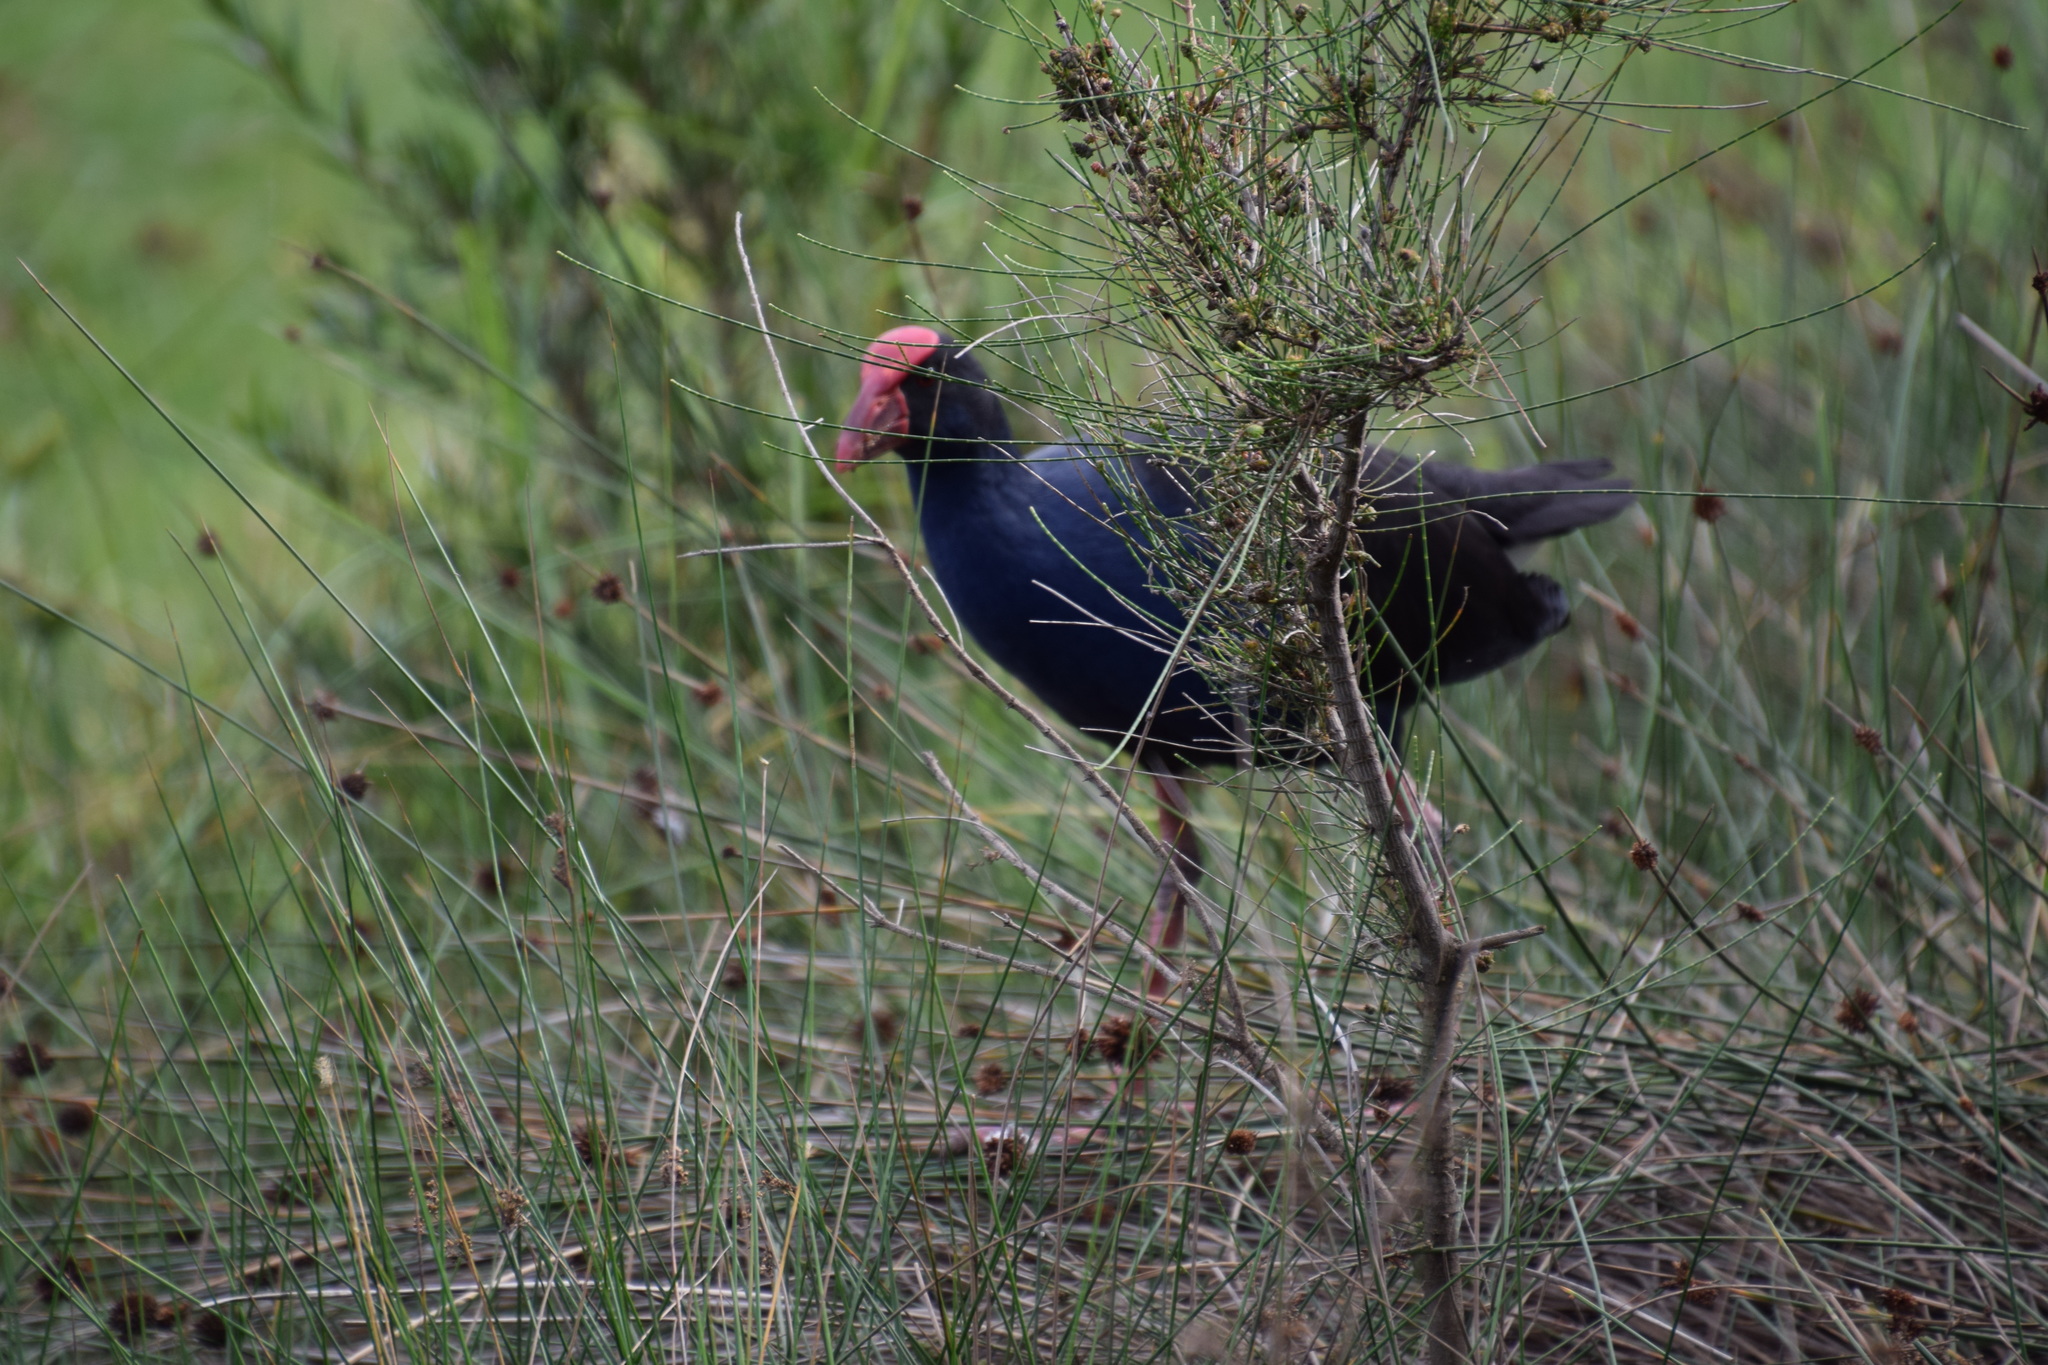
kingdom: Animalia
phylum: Chordata
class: Aves
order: Gruiformes
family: Rallidae
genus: Porphyrio
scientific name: Porphyrio melanotus
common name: Australasian swamphen
